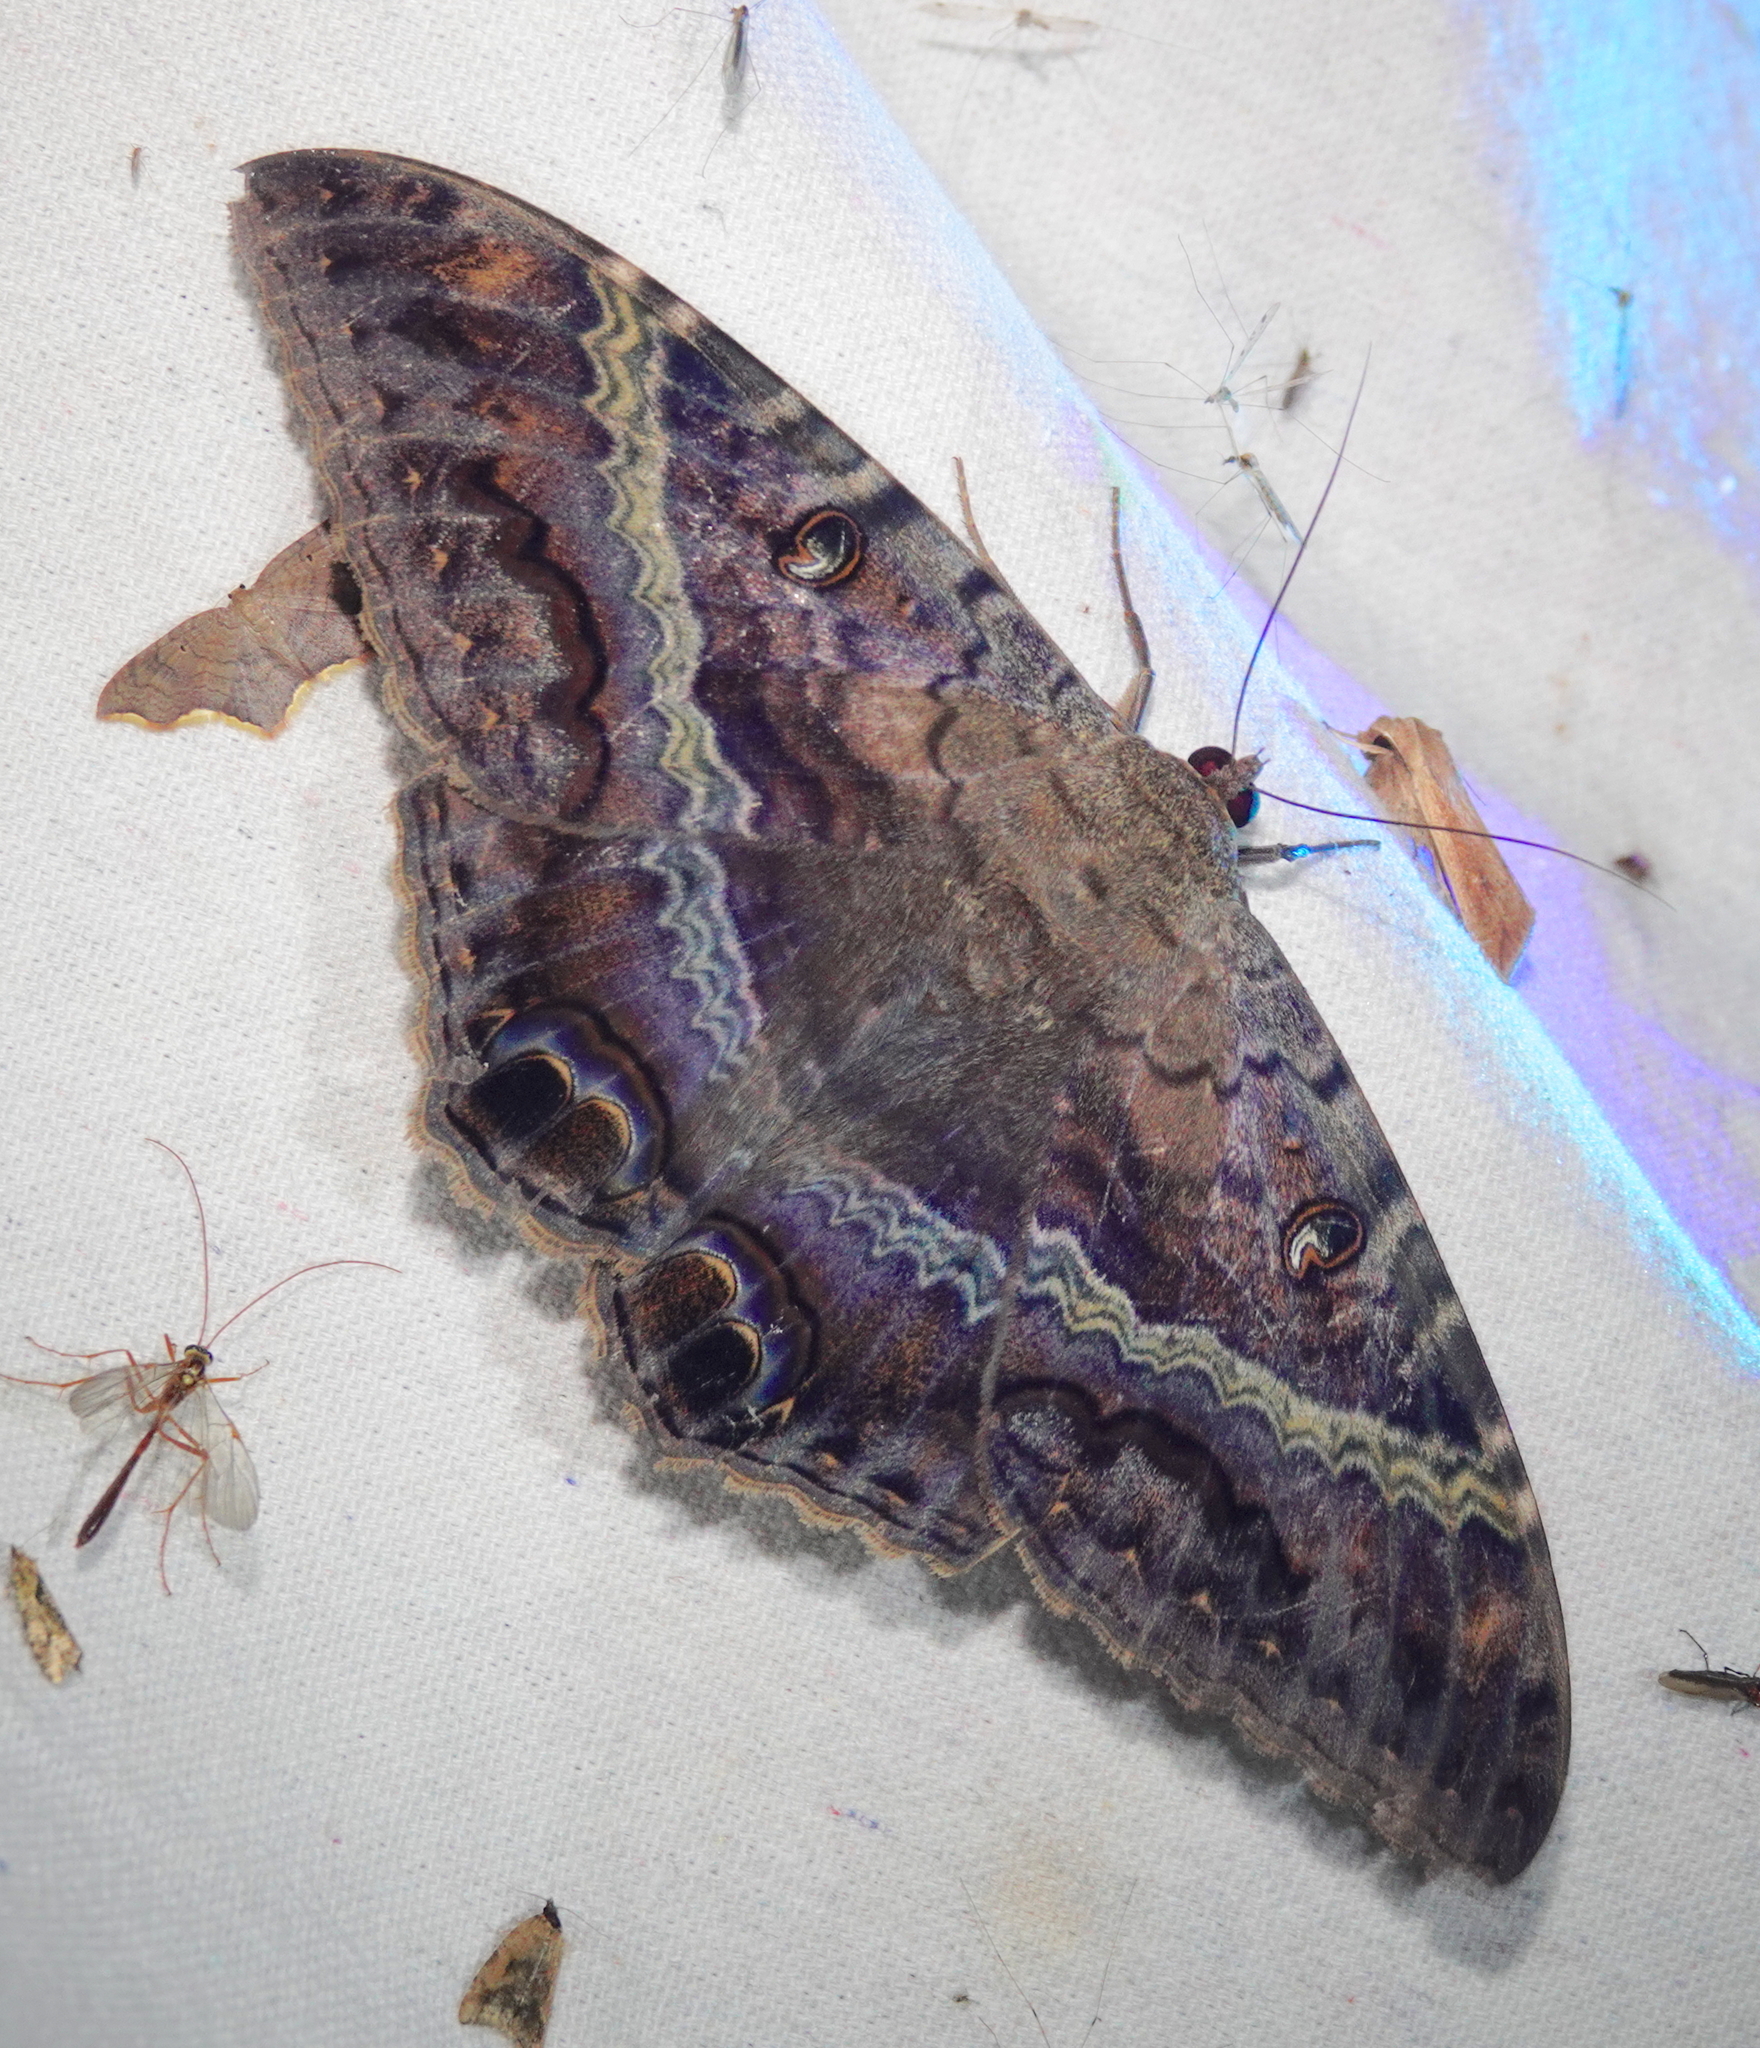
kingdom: Animalia
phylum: Arthropoda
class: Insecta
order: Lepidoptera
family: Erebidae
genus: Ascalapha
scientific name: Ascalapha odorata
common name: Black witch
